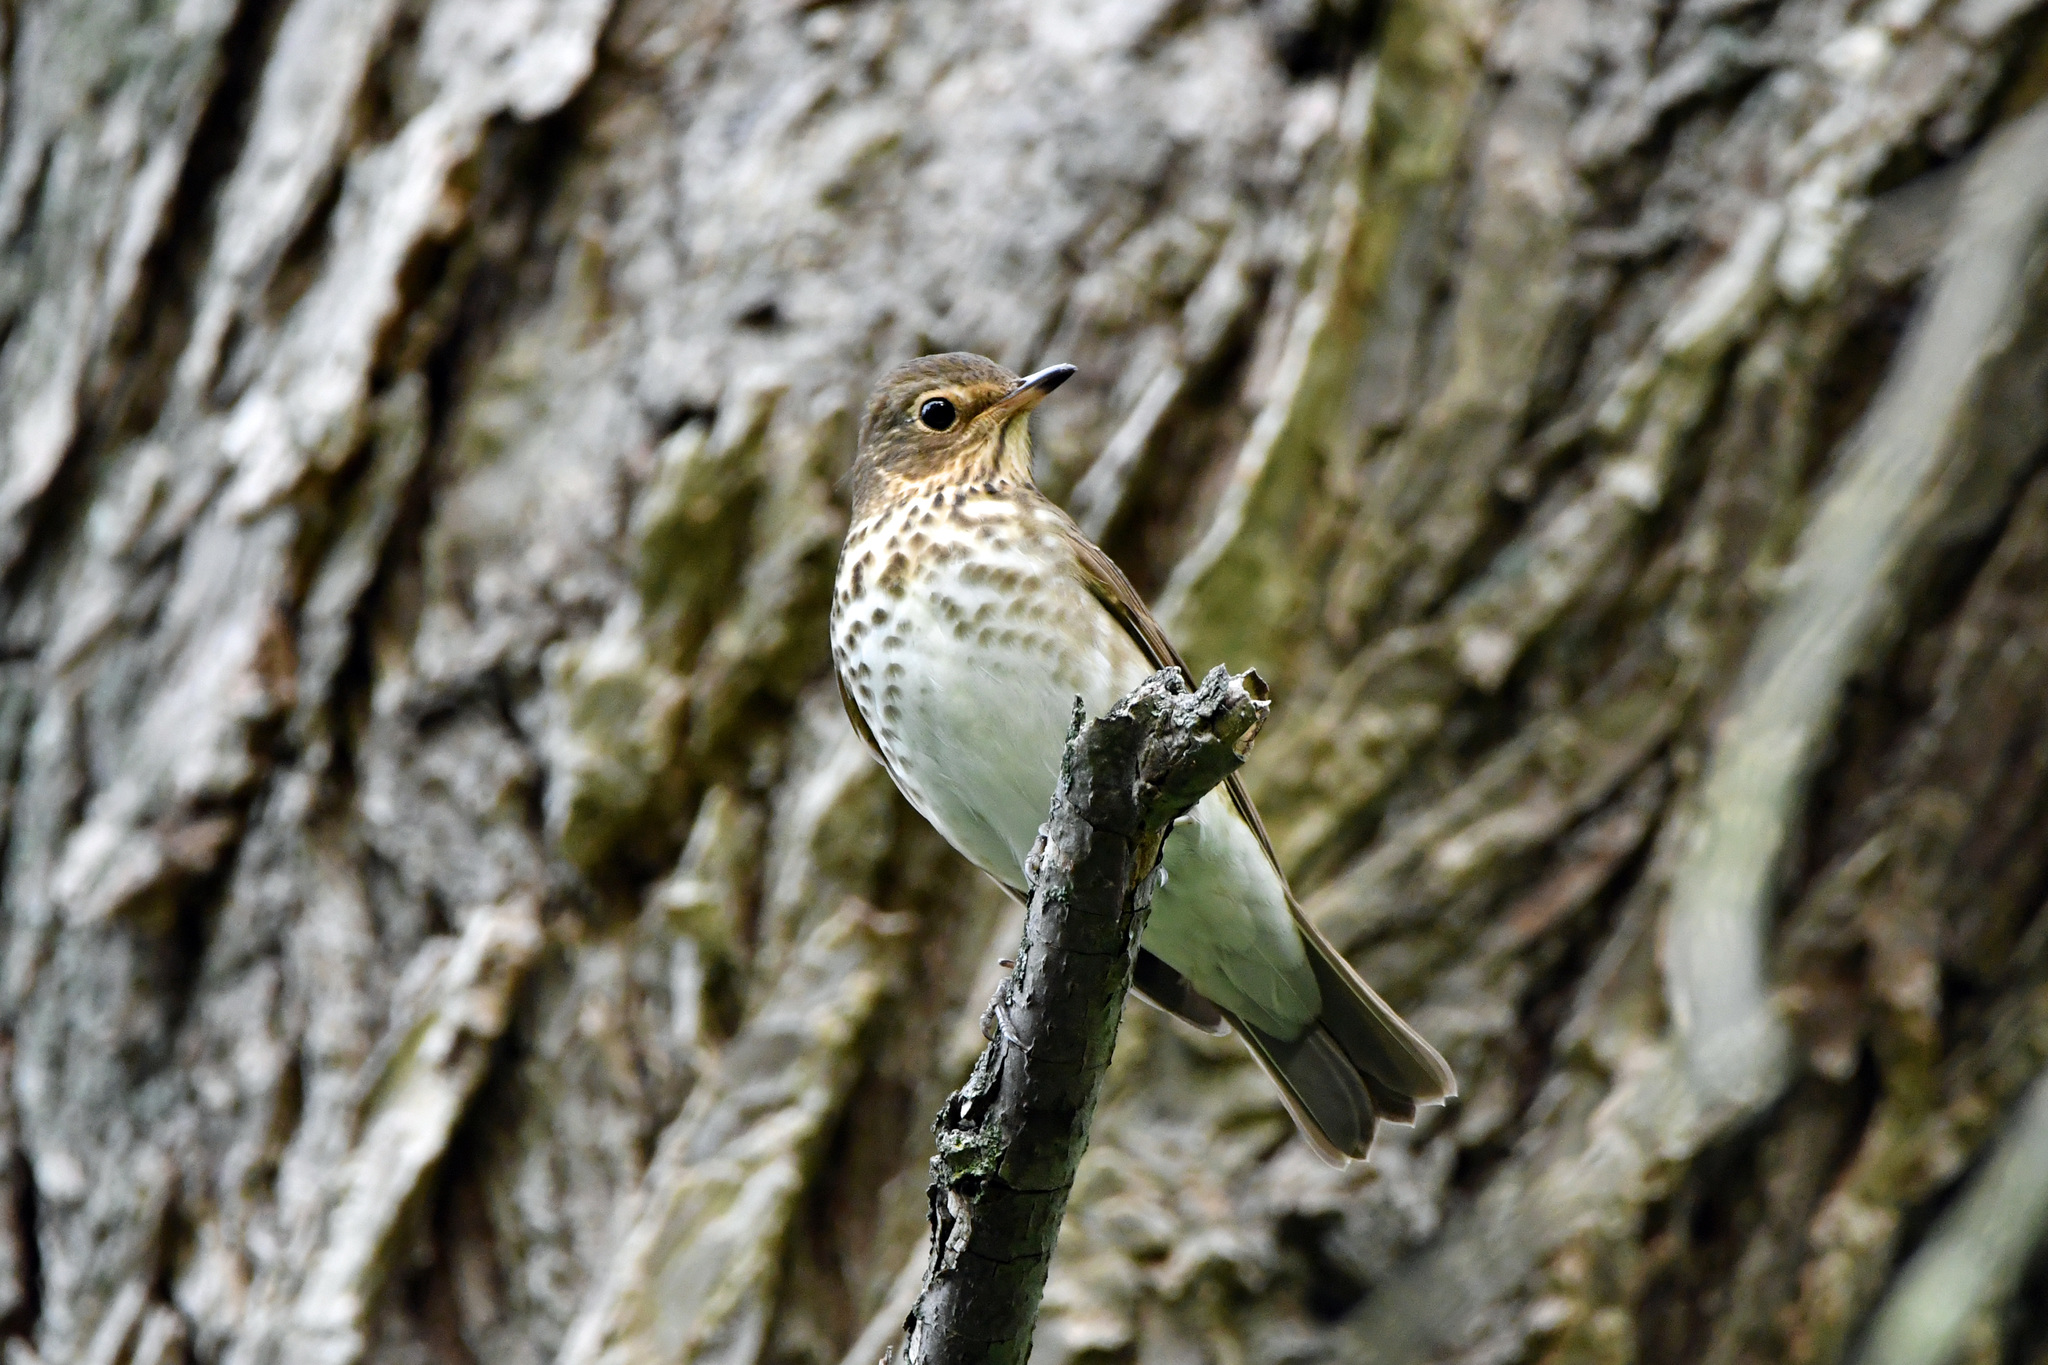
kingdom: Animalia
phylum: Chordata
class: Aves
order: Passeriformes
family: Turdidae
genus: Catharus
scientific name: Catharus ustulatus
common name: Swainson's thrush
